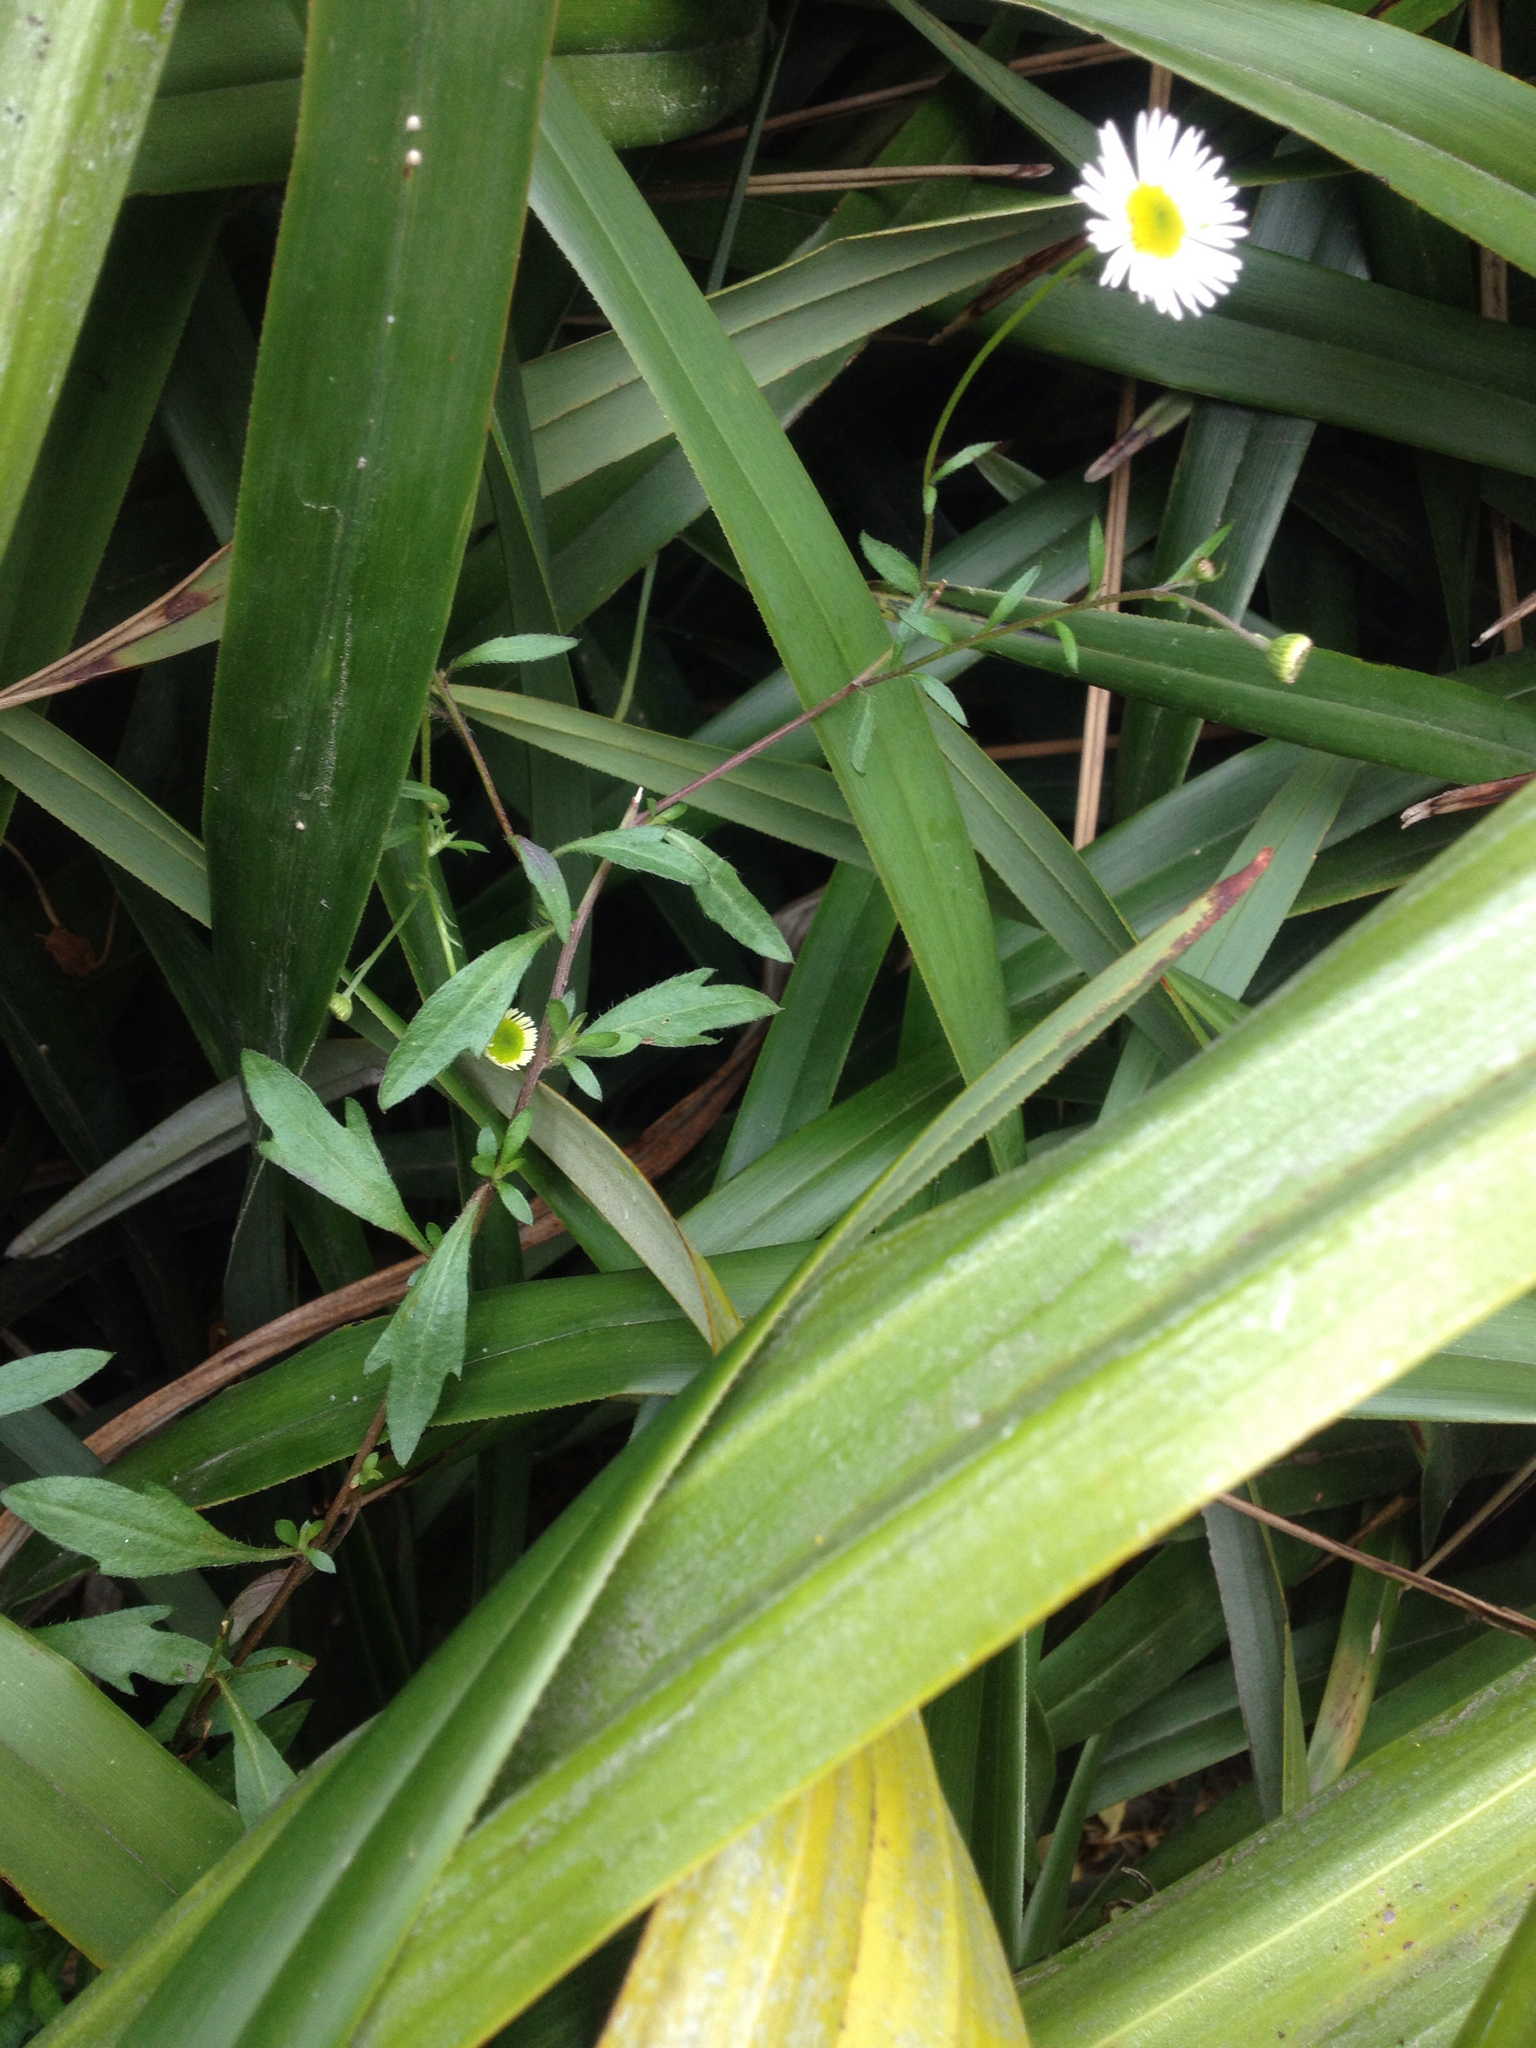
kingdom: Plantae
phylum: Tracheophyta
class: Magnoliopsida
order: Asterales
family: Asteraceae
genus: Erigeron
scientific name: Erigeron karvinskianus
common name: Mexican fleabane
